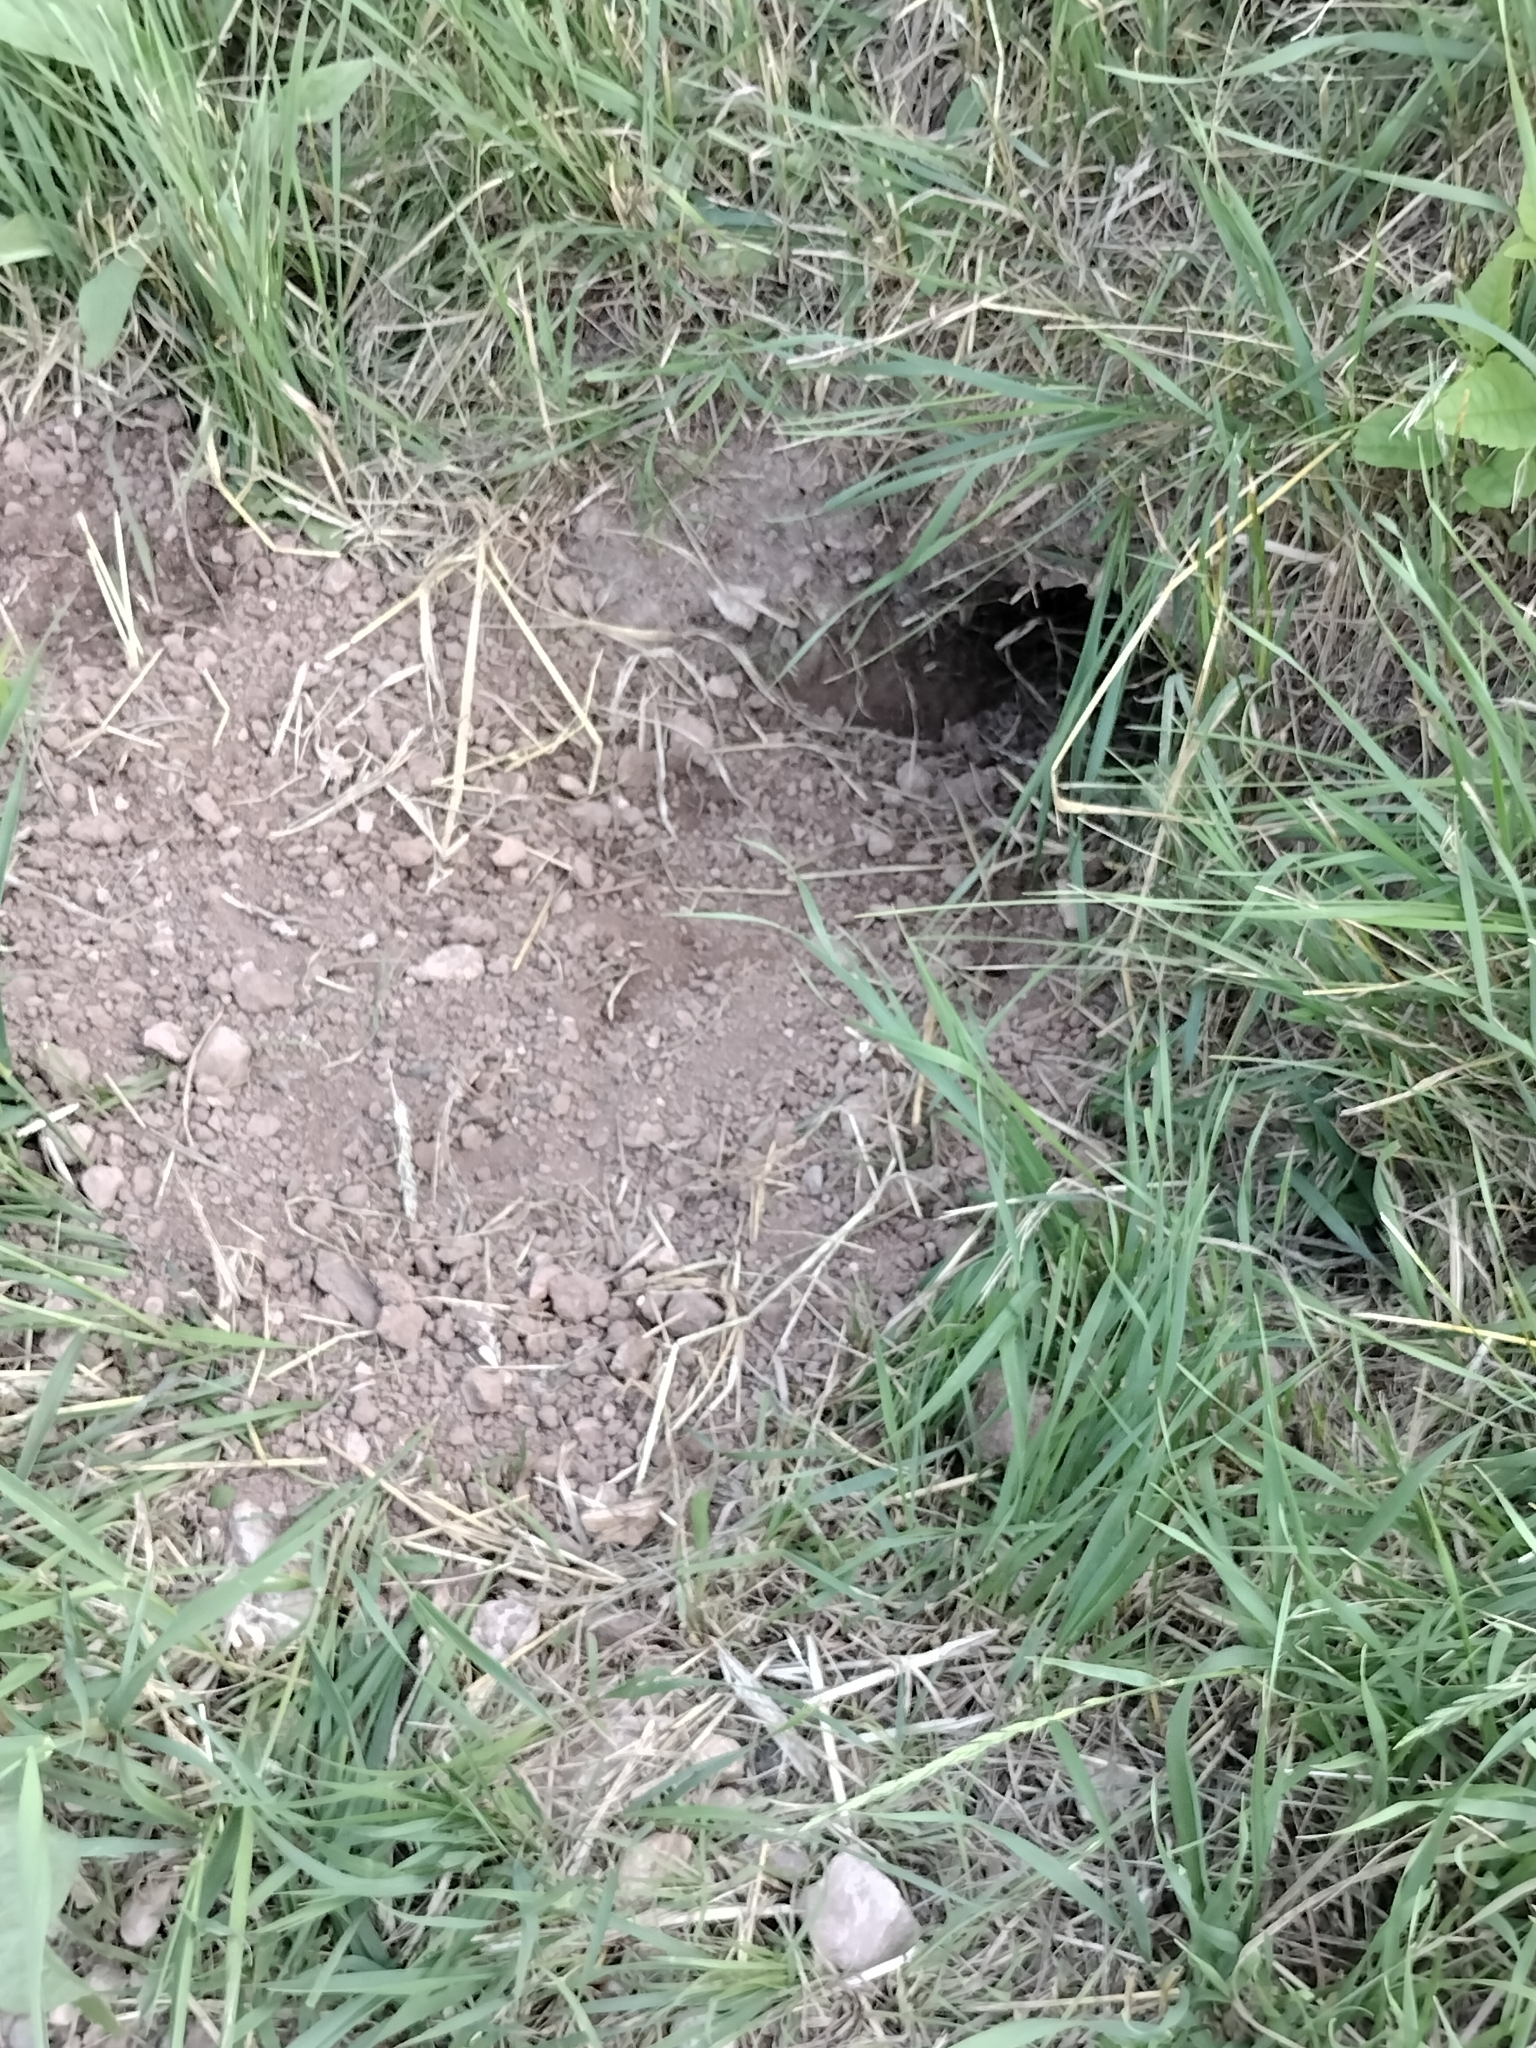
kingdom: Animalia
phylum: Chordata
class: Mammalia
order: Rodentia
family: Sciuridae
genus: Marmota
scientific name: Marmota monax
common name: Groundhog
